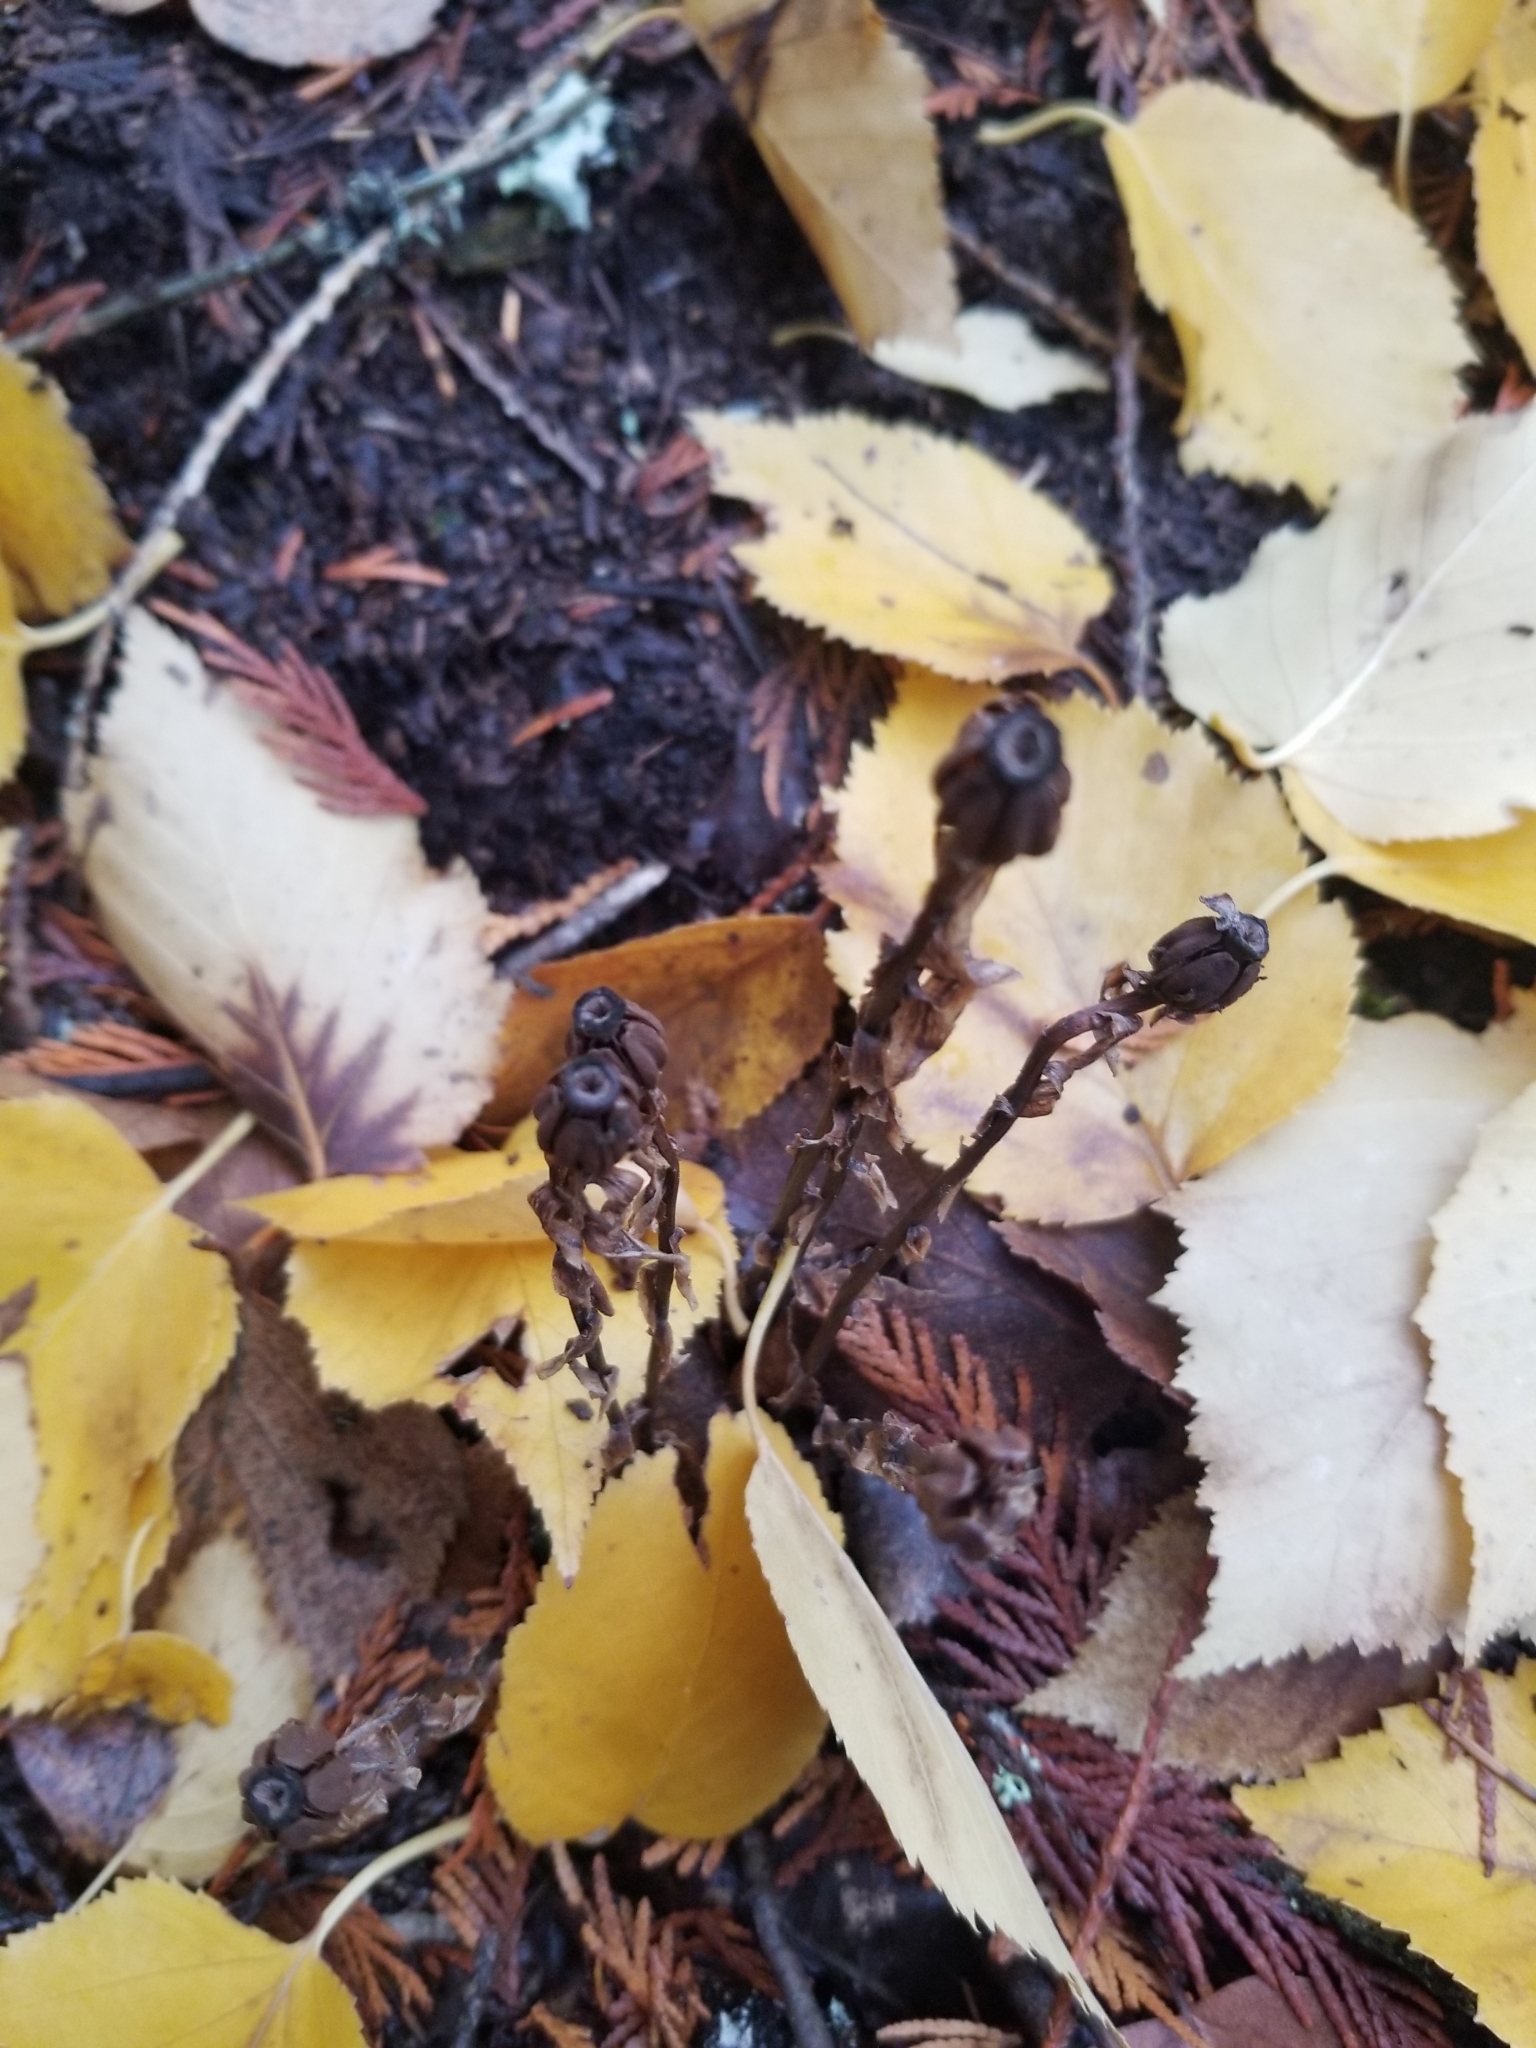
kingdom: Plantae
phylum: Tracheophyta
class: Magnoliopsida
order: Ericales
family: Ericaceae
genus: Monotropa
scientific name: Monotropa uniflora
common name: Convulsion root
